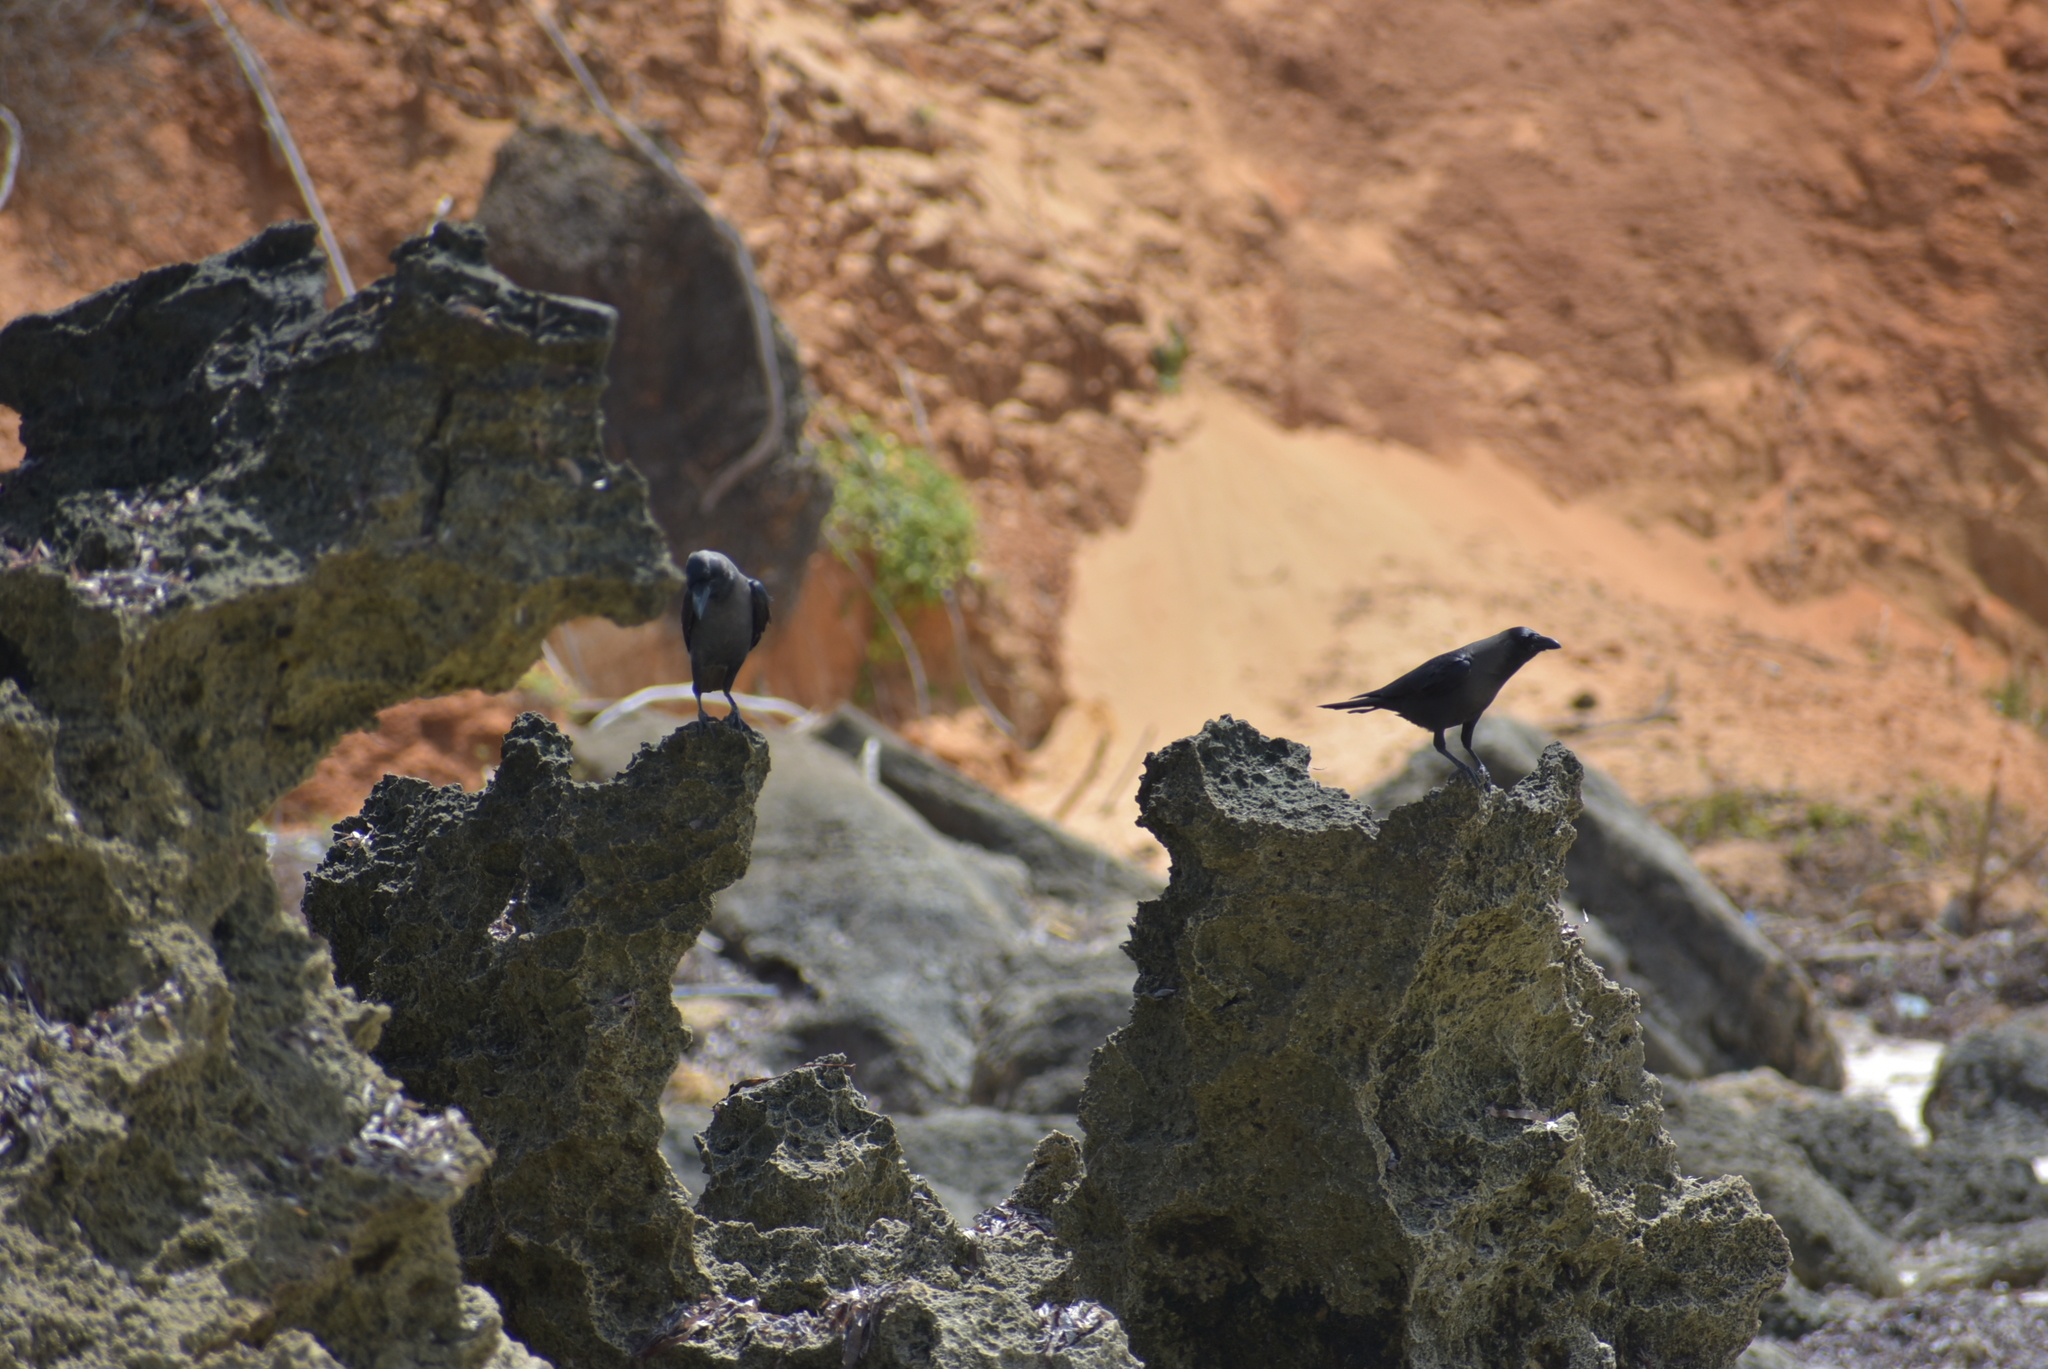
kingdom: Animalia
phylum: Chordata
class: Aves
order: Passeriformes
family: Corvidae
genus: Corvus
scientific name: Corvus splendens
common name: House crow
